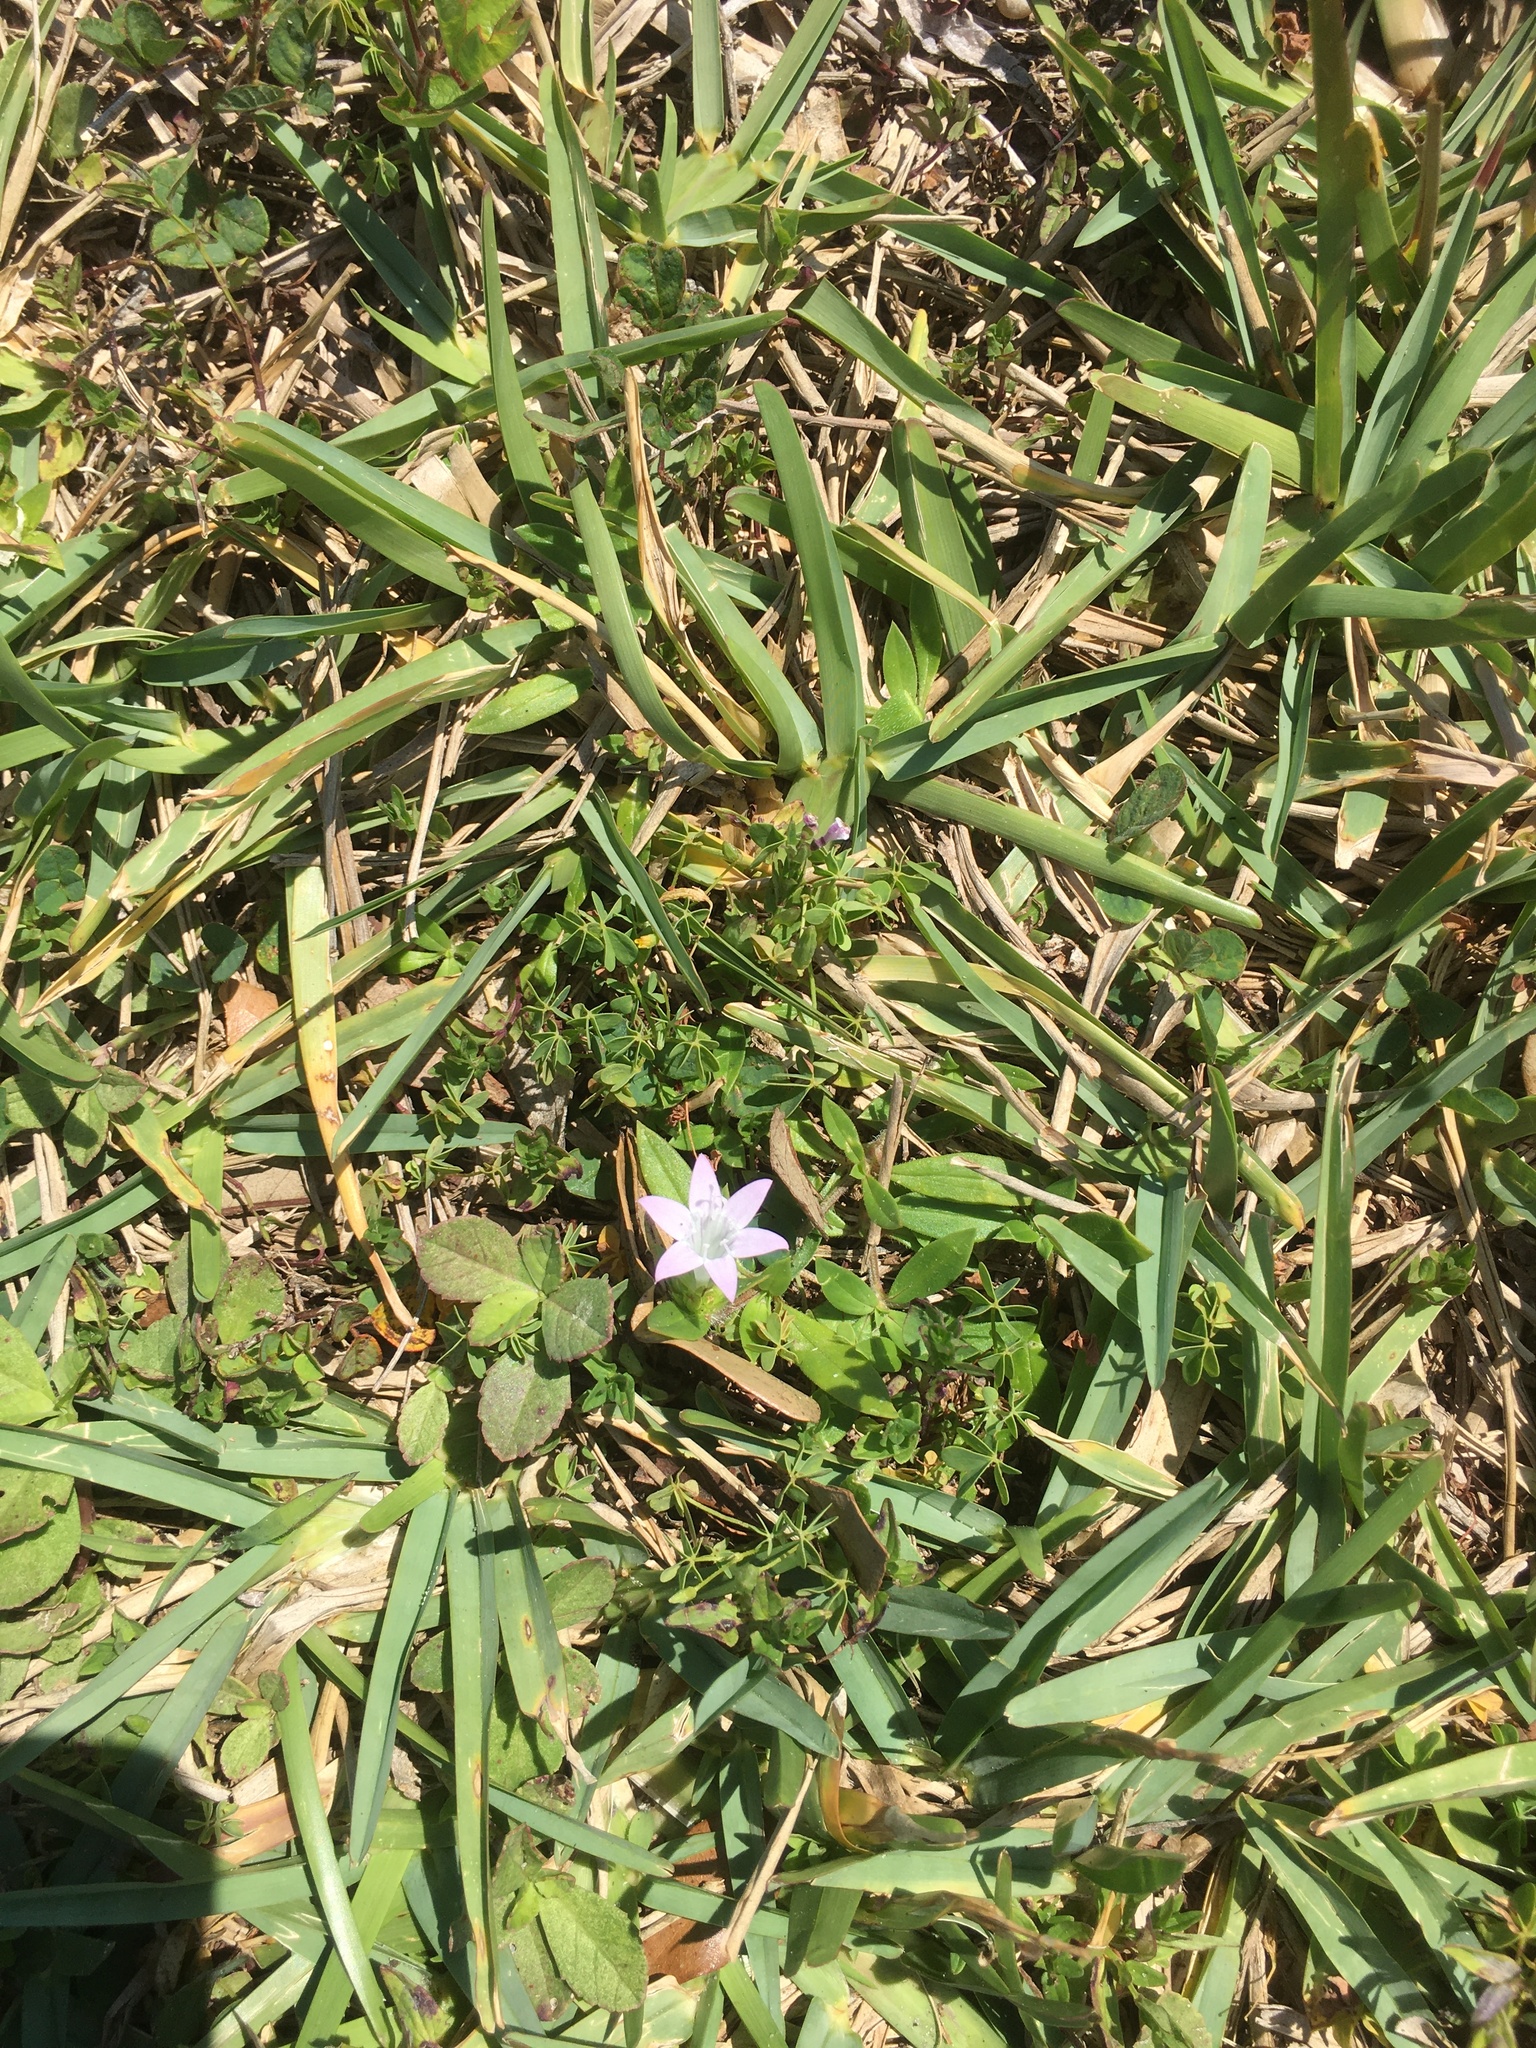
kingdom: Plantae
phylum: Tracheophyta
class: Magnoliopsida
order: Gentianales
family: Rubiaceae
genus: Richardia
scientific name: Richardia grandiflora
